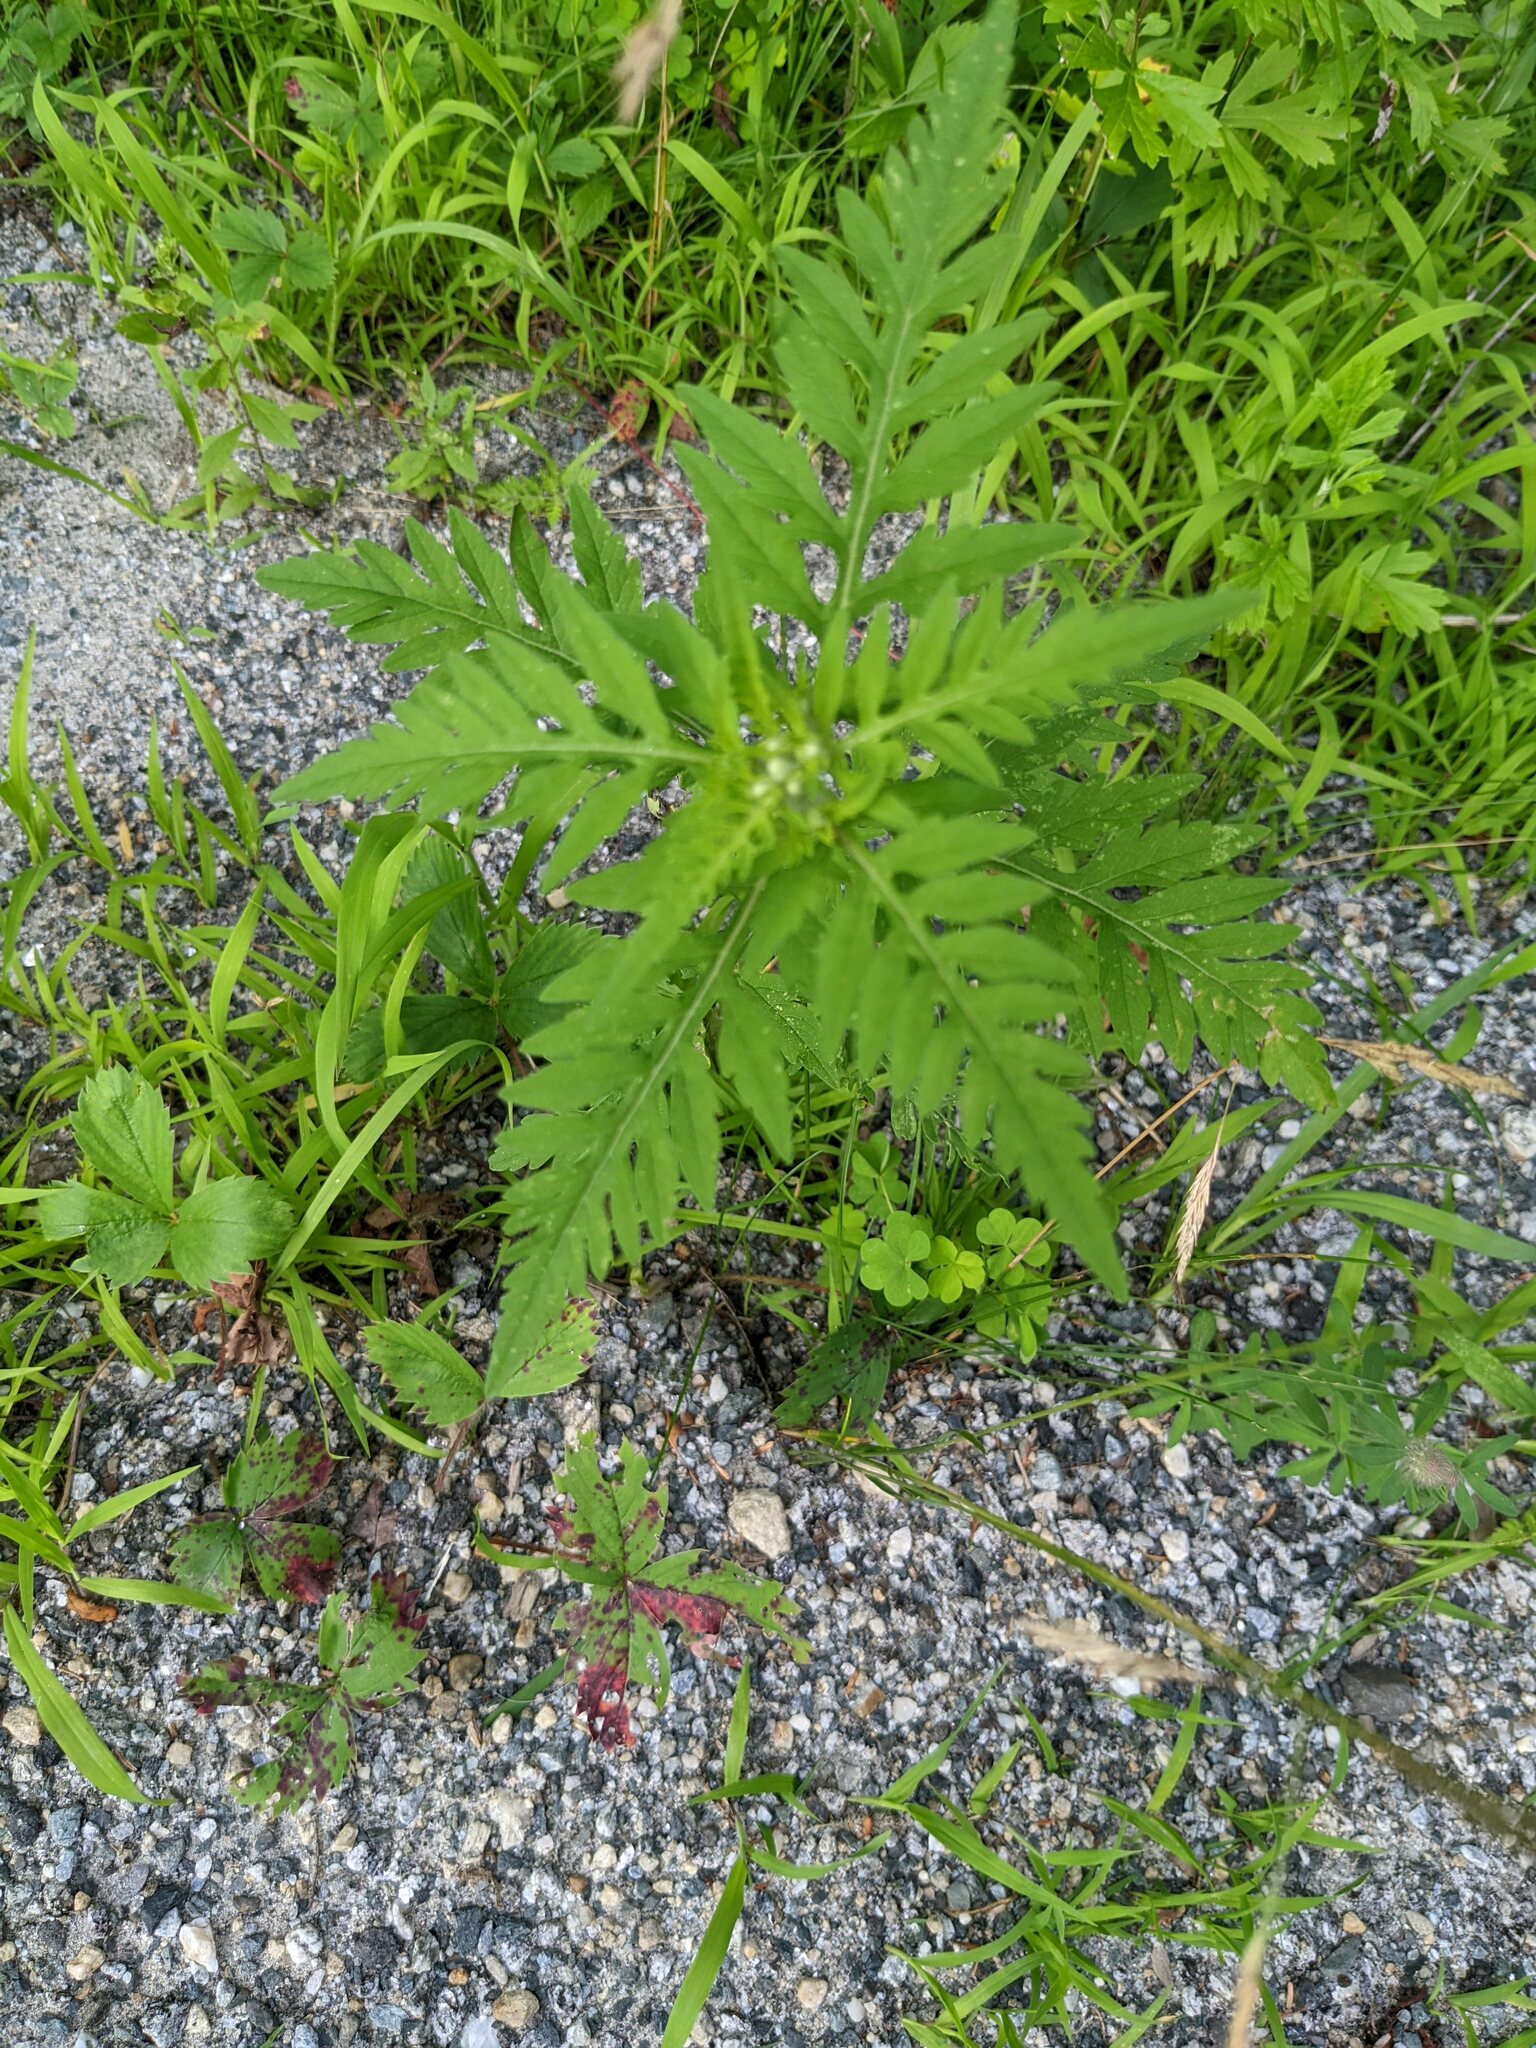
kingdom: Plantae
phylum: Tracheophyta
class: Magnoliopsida
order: Asterales
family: Asteraceae
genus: Ambrosia
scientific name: Ambrosia artemisiifolia
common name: Annual ragweed
